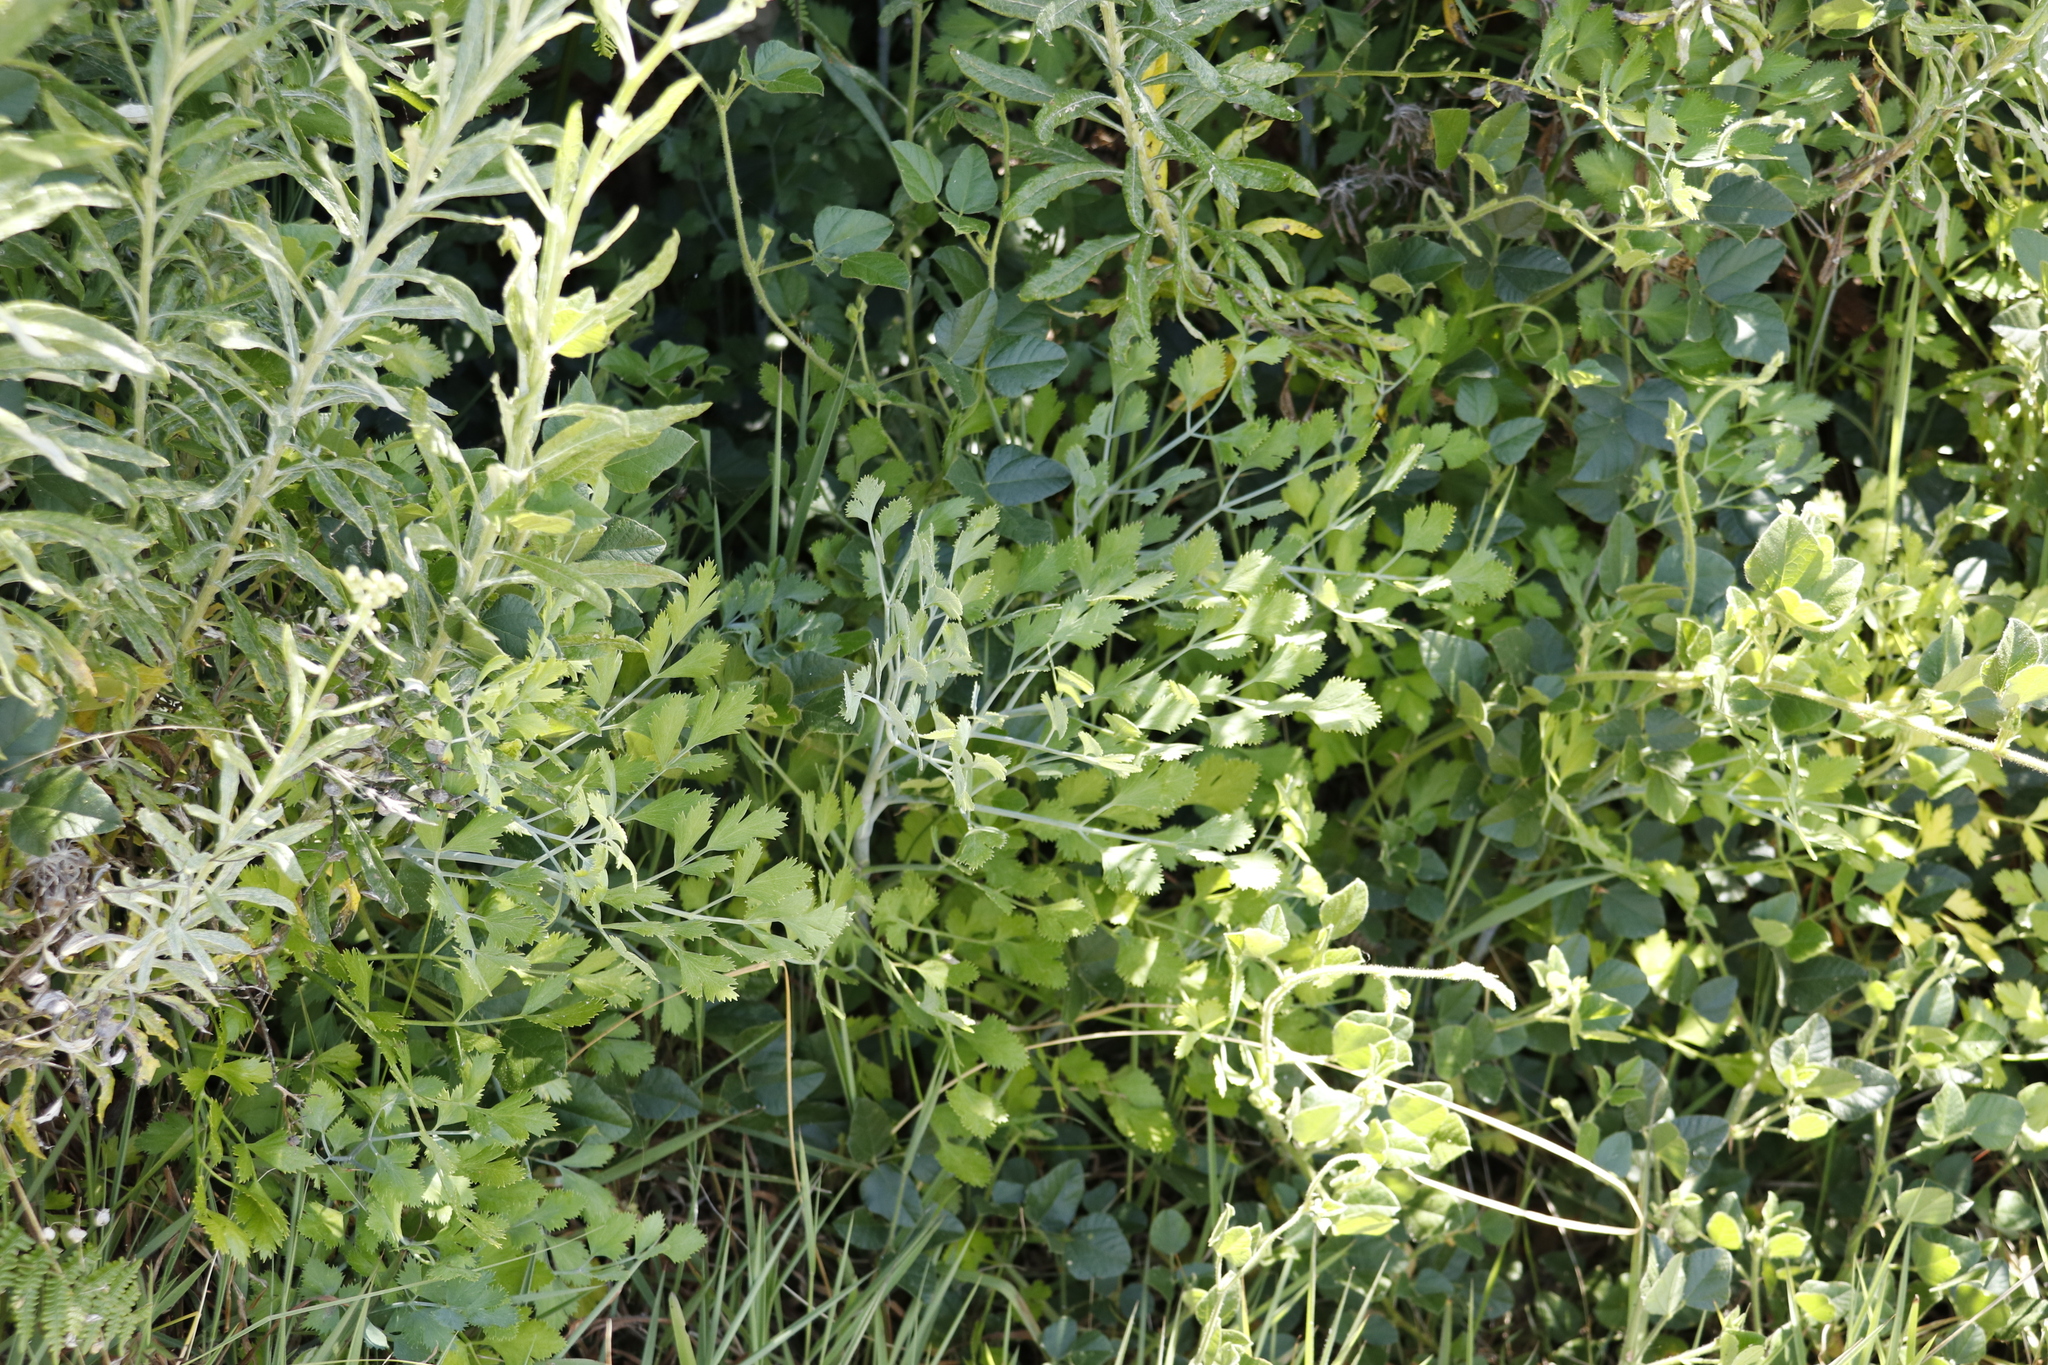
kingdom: Plantae
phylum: Tracheophyta
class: Magnoliopsida
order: Apiales
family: Apiaceae
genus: Notobubon
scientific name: Notobubon galbanum
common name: Blisterbush
